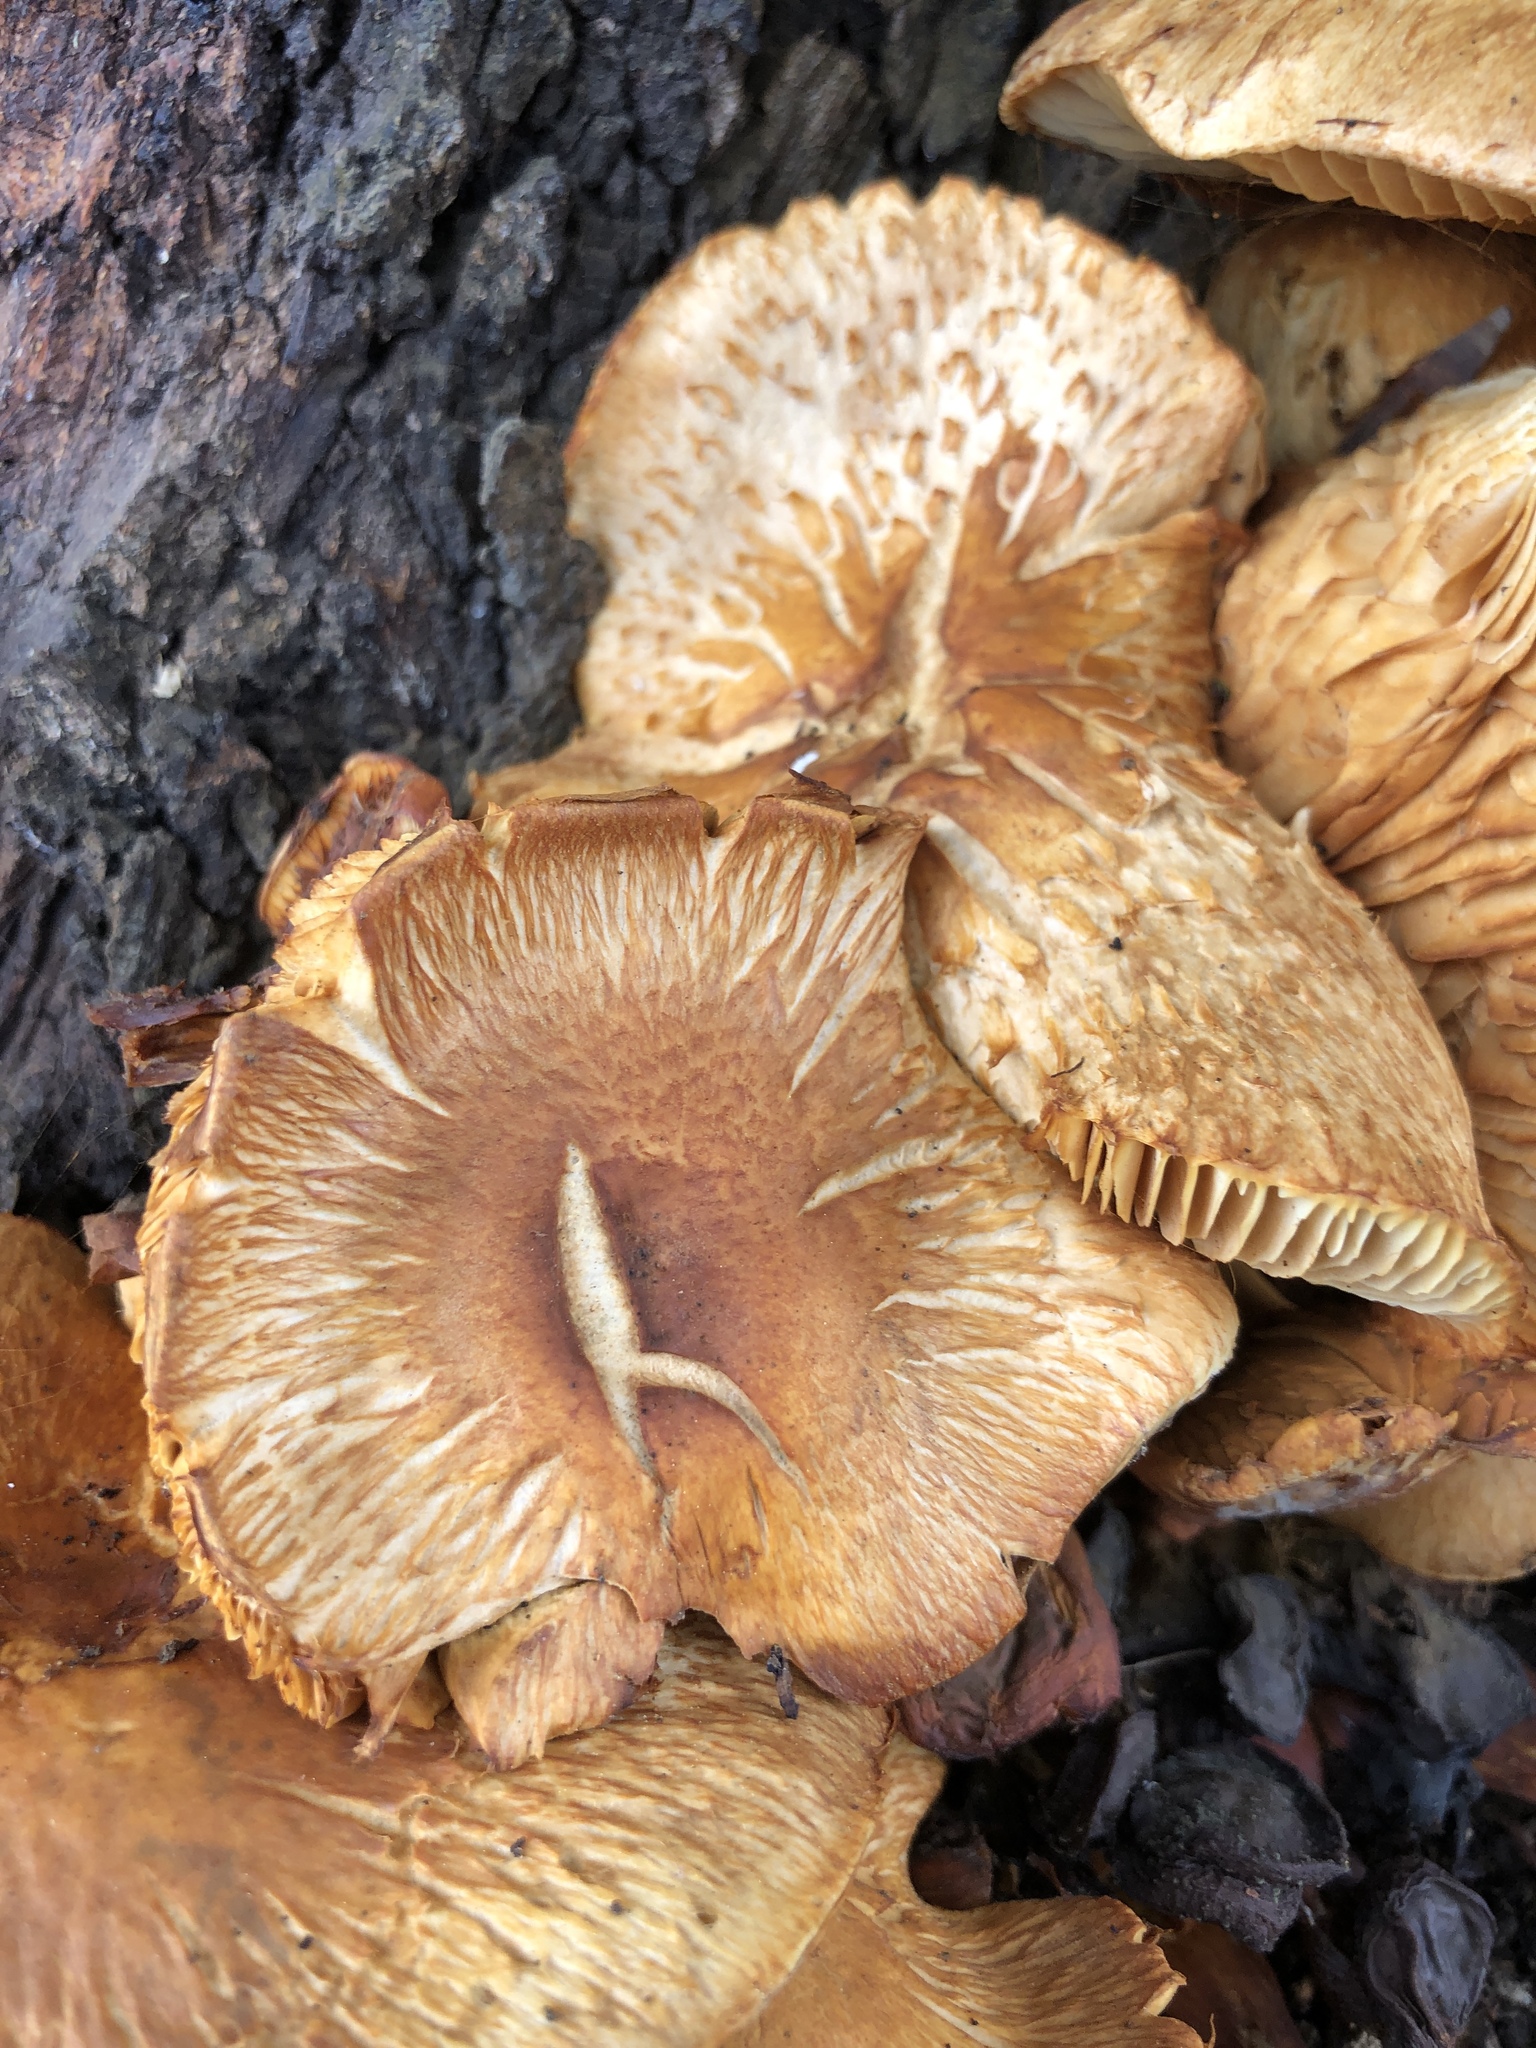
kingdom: Fungi
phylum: Basidiomycota
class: Agaricomycetes
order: Agaricales
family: Hymenogastraceae
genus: Gymnopilus
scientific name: Gymnopilus junonius
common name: Spectacular rustgill
